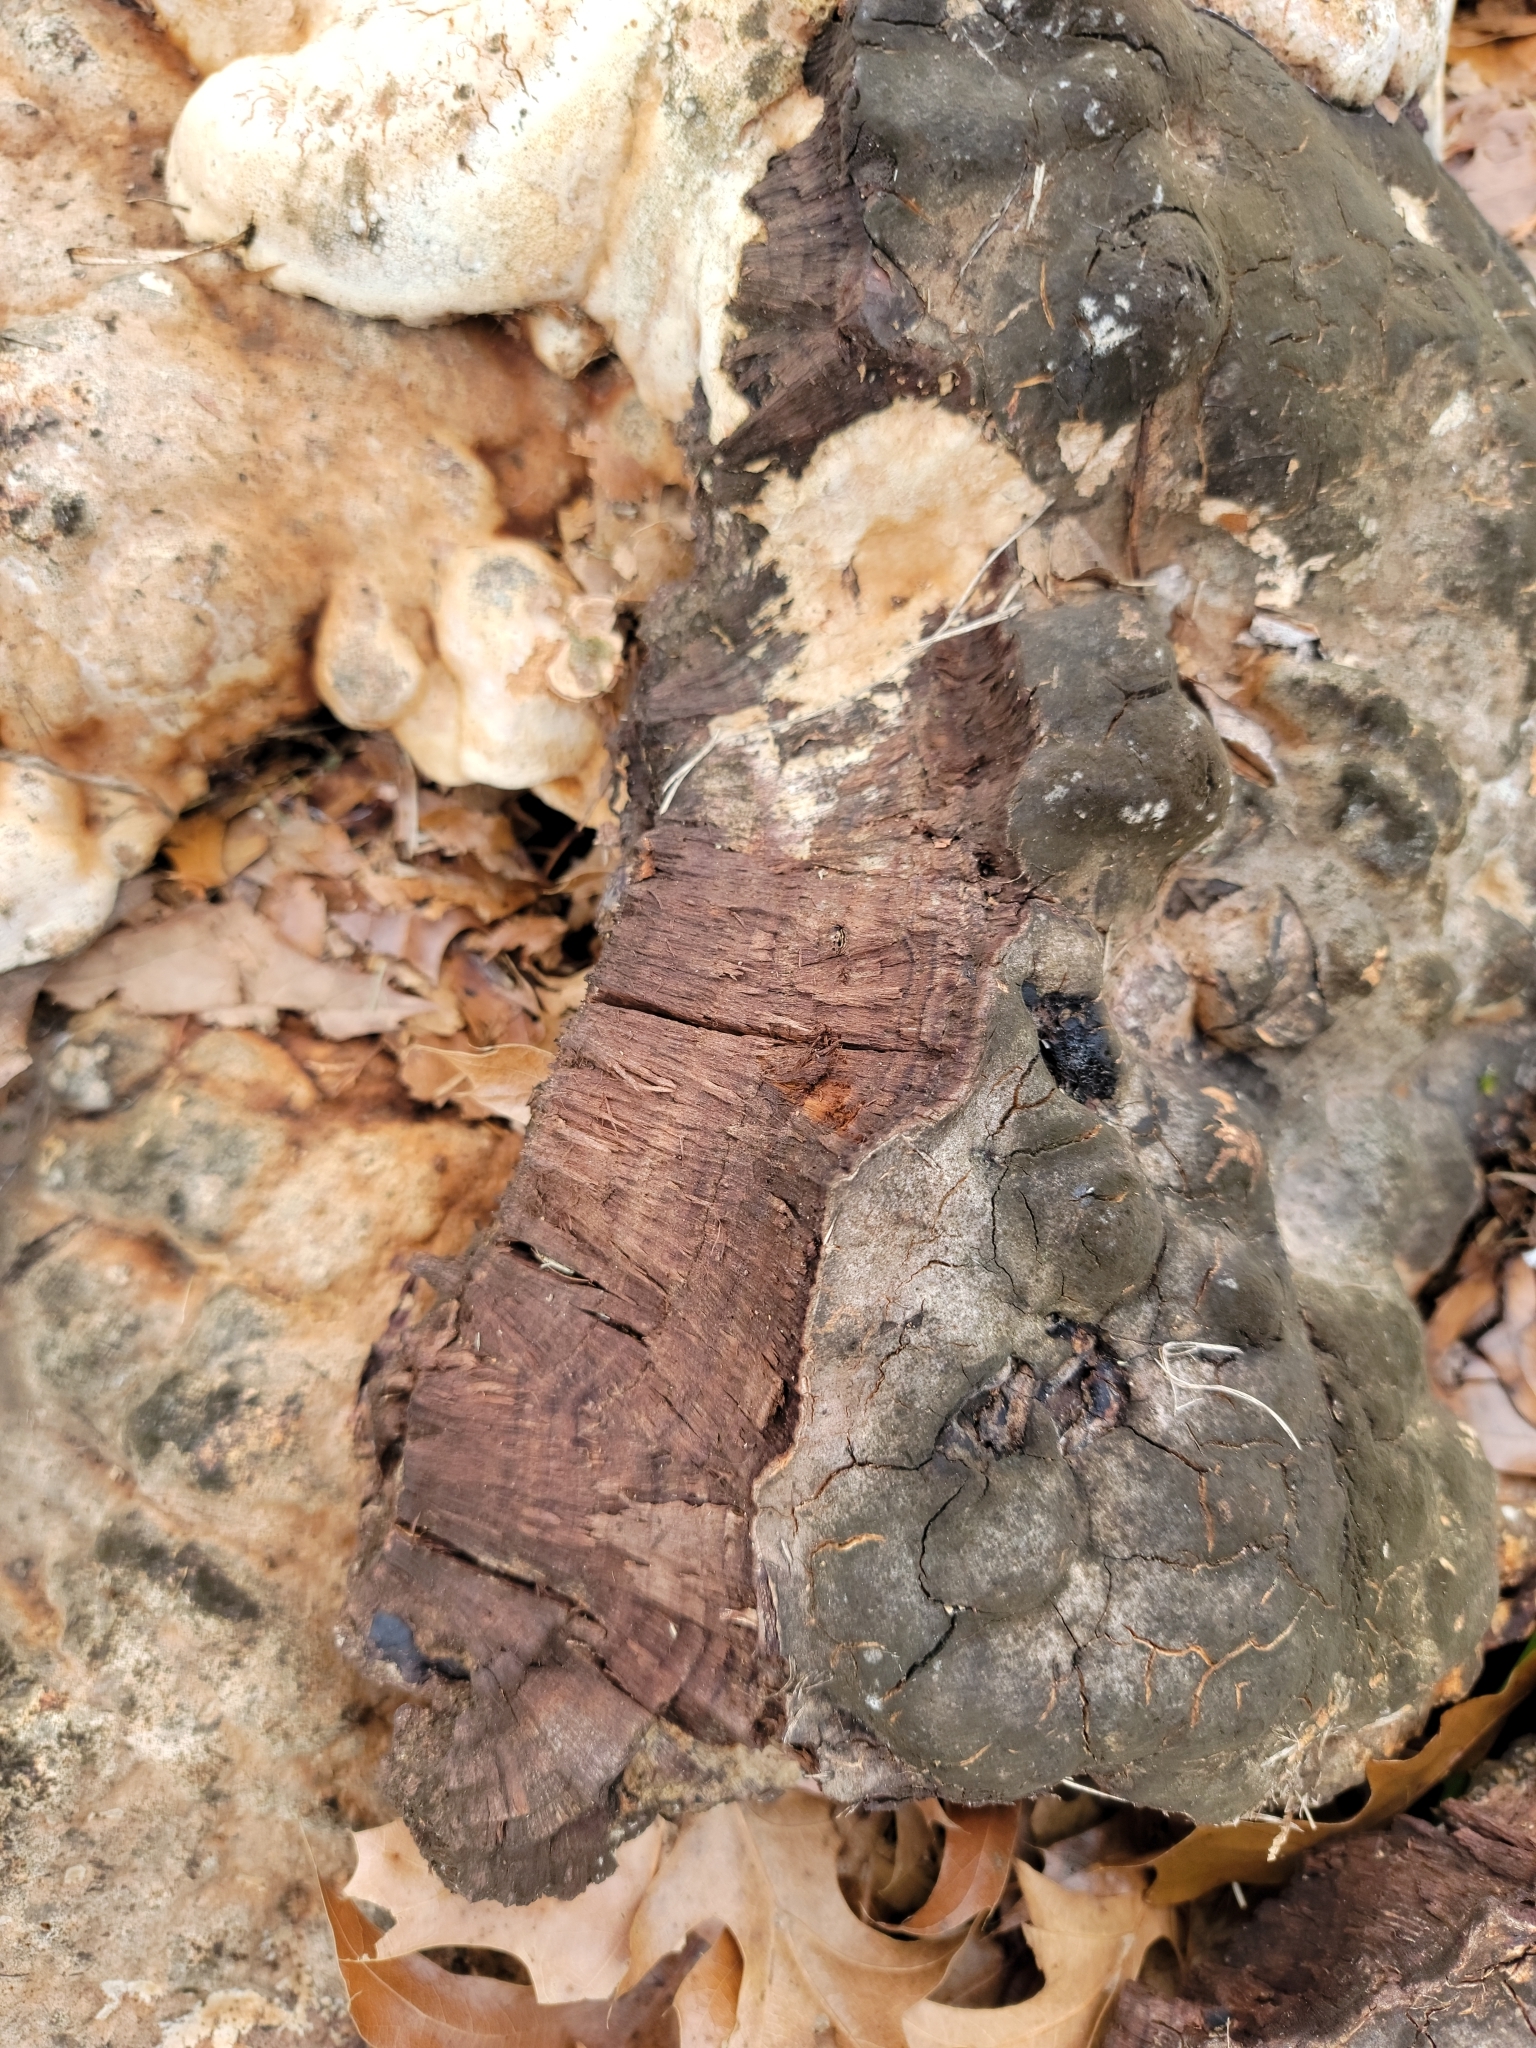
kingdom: Fungi
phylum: Basidiomycota
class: Agaricomycetes
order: Hymenochaetales
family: Hymenochaetaceae
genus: Pseudoinonotus
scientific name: Pseudoinonotus dryadeus
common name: Oak bracket
